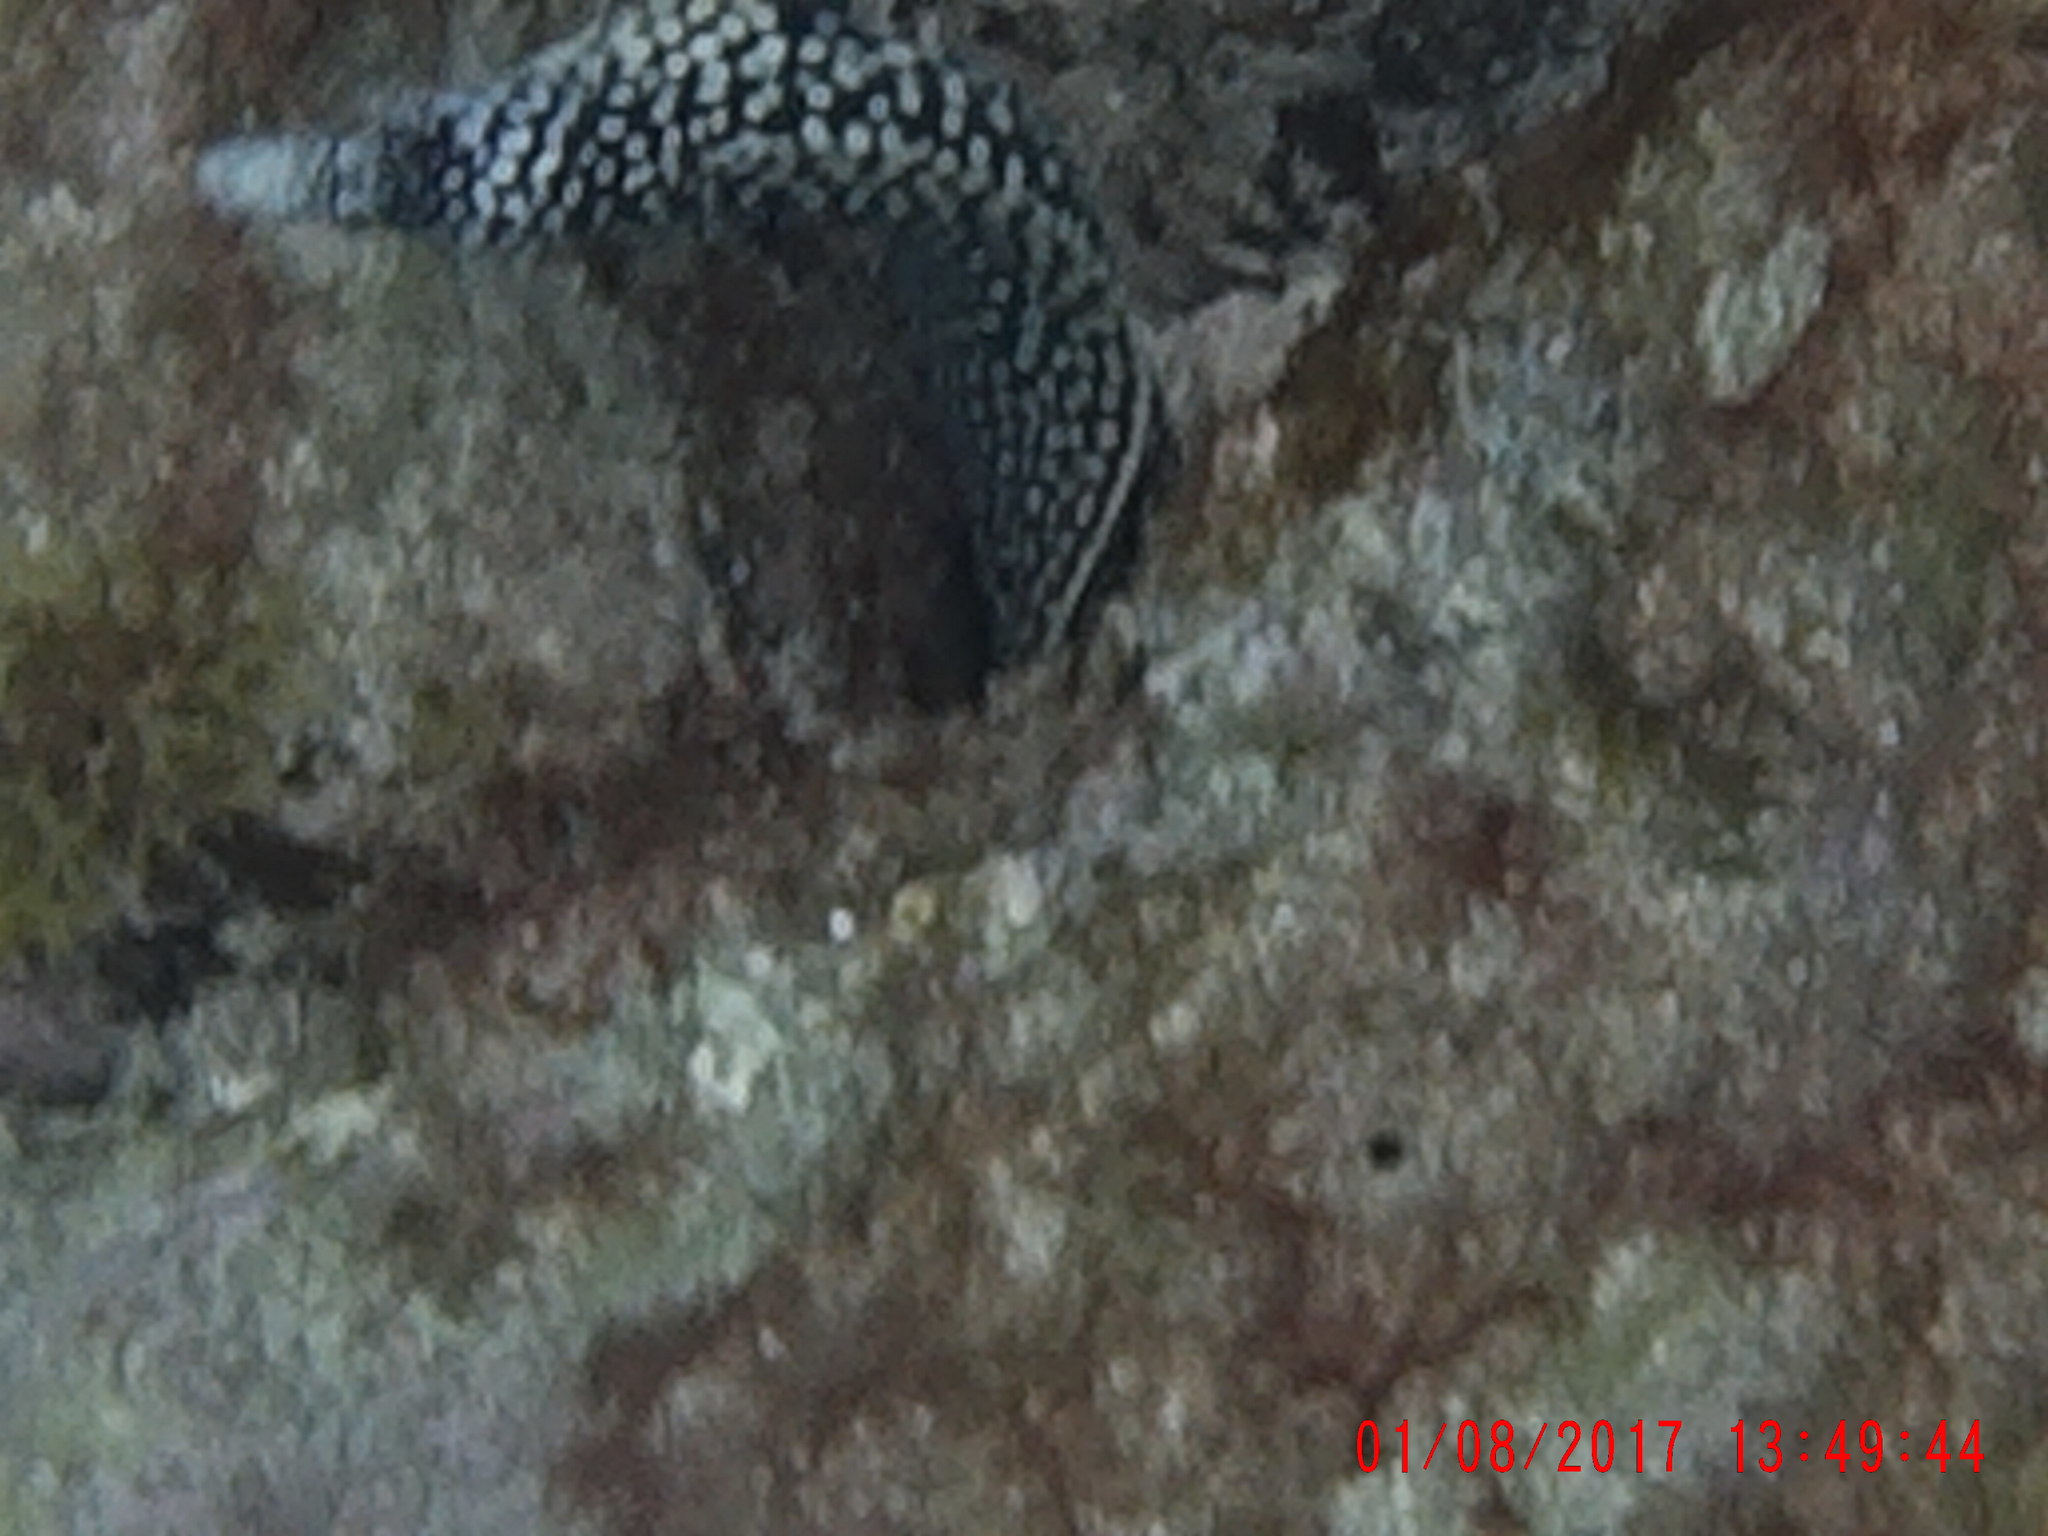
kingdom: Animalia
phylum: Chordata
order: Anguilliformes
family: Muraenidae
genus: Muraena
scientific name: Muraena melanotis
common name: Honeycomb moray
